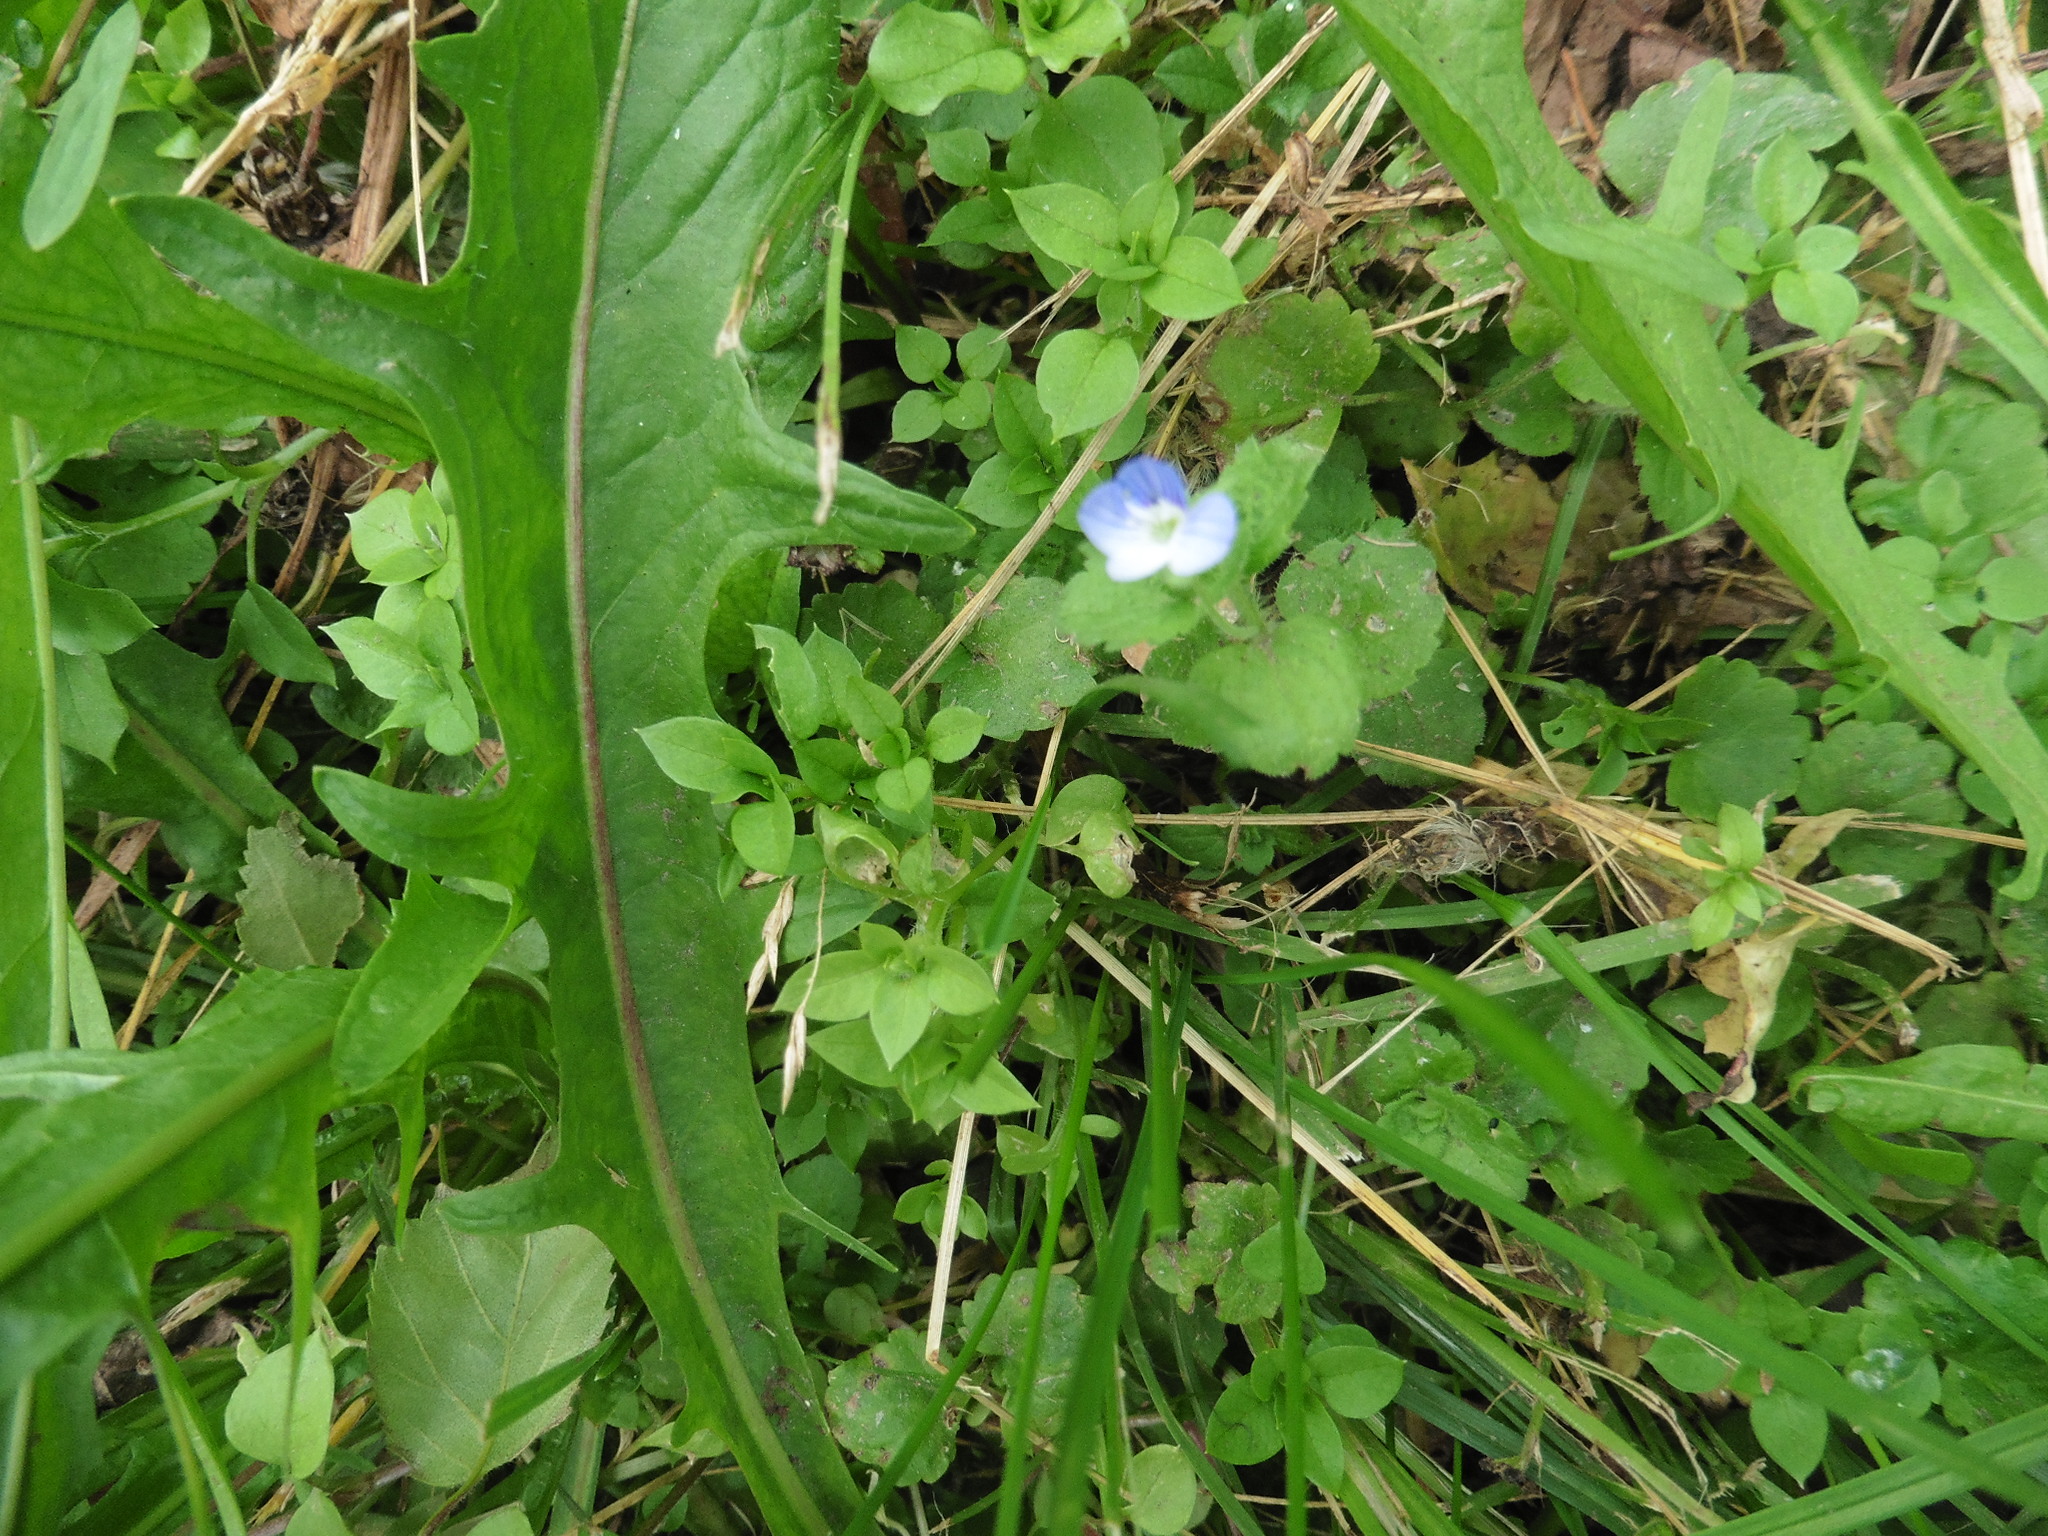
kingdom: Plantae
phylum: Tracheophyta
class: Magnoliopsida
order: Lamiales
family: Plantaginaceae
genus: Veronica
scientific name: Veronica persica
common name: Common field-speedwell
